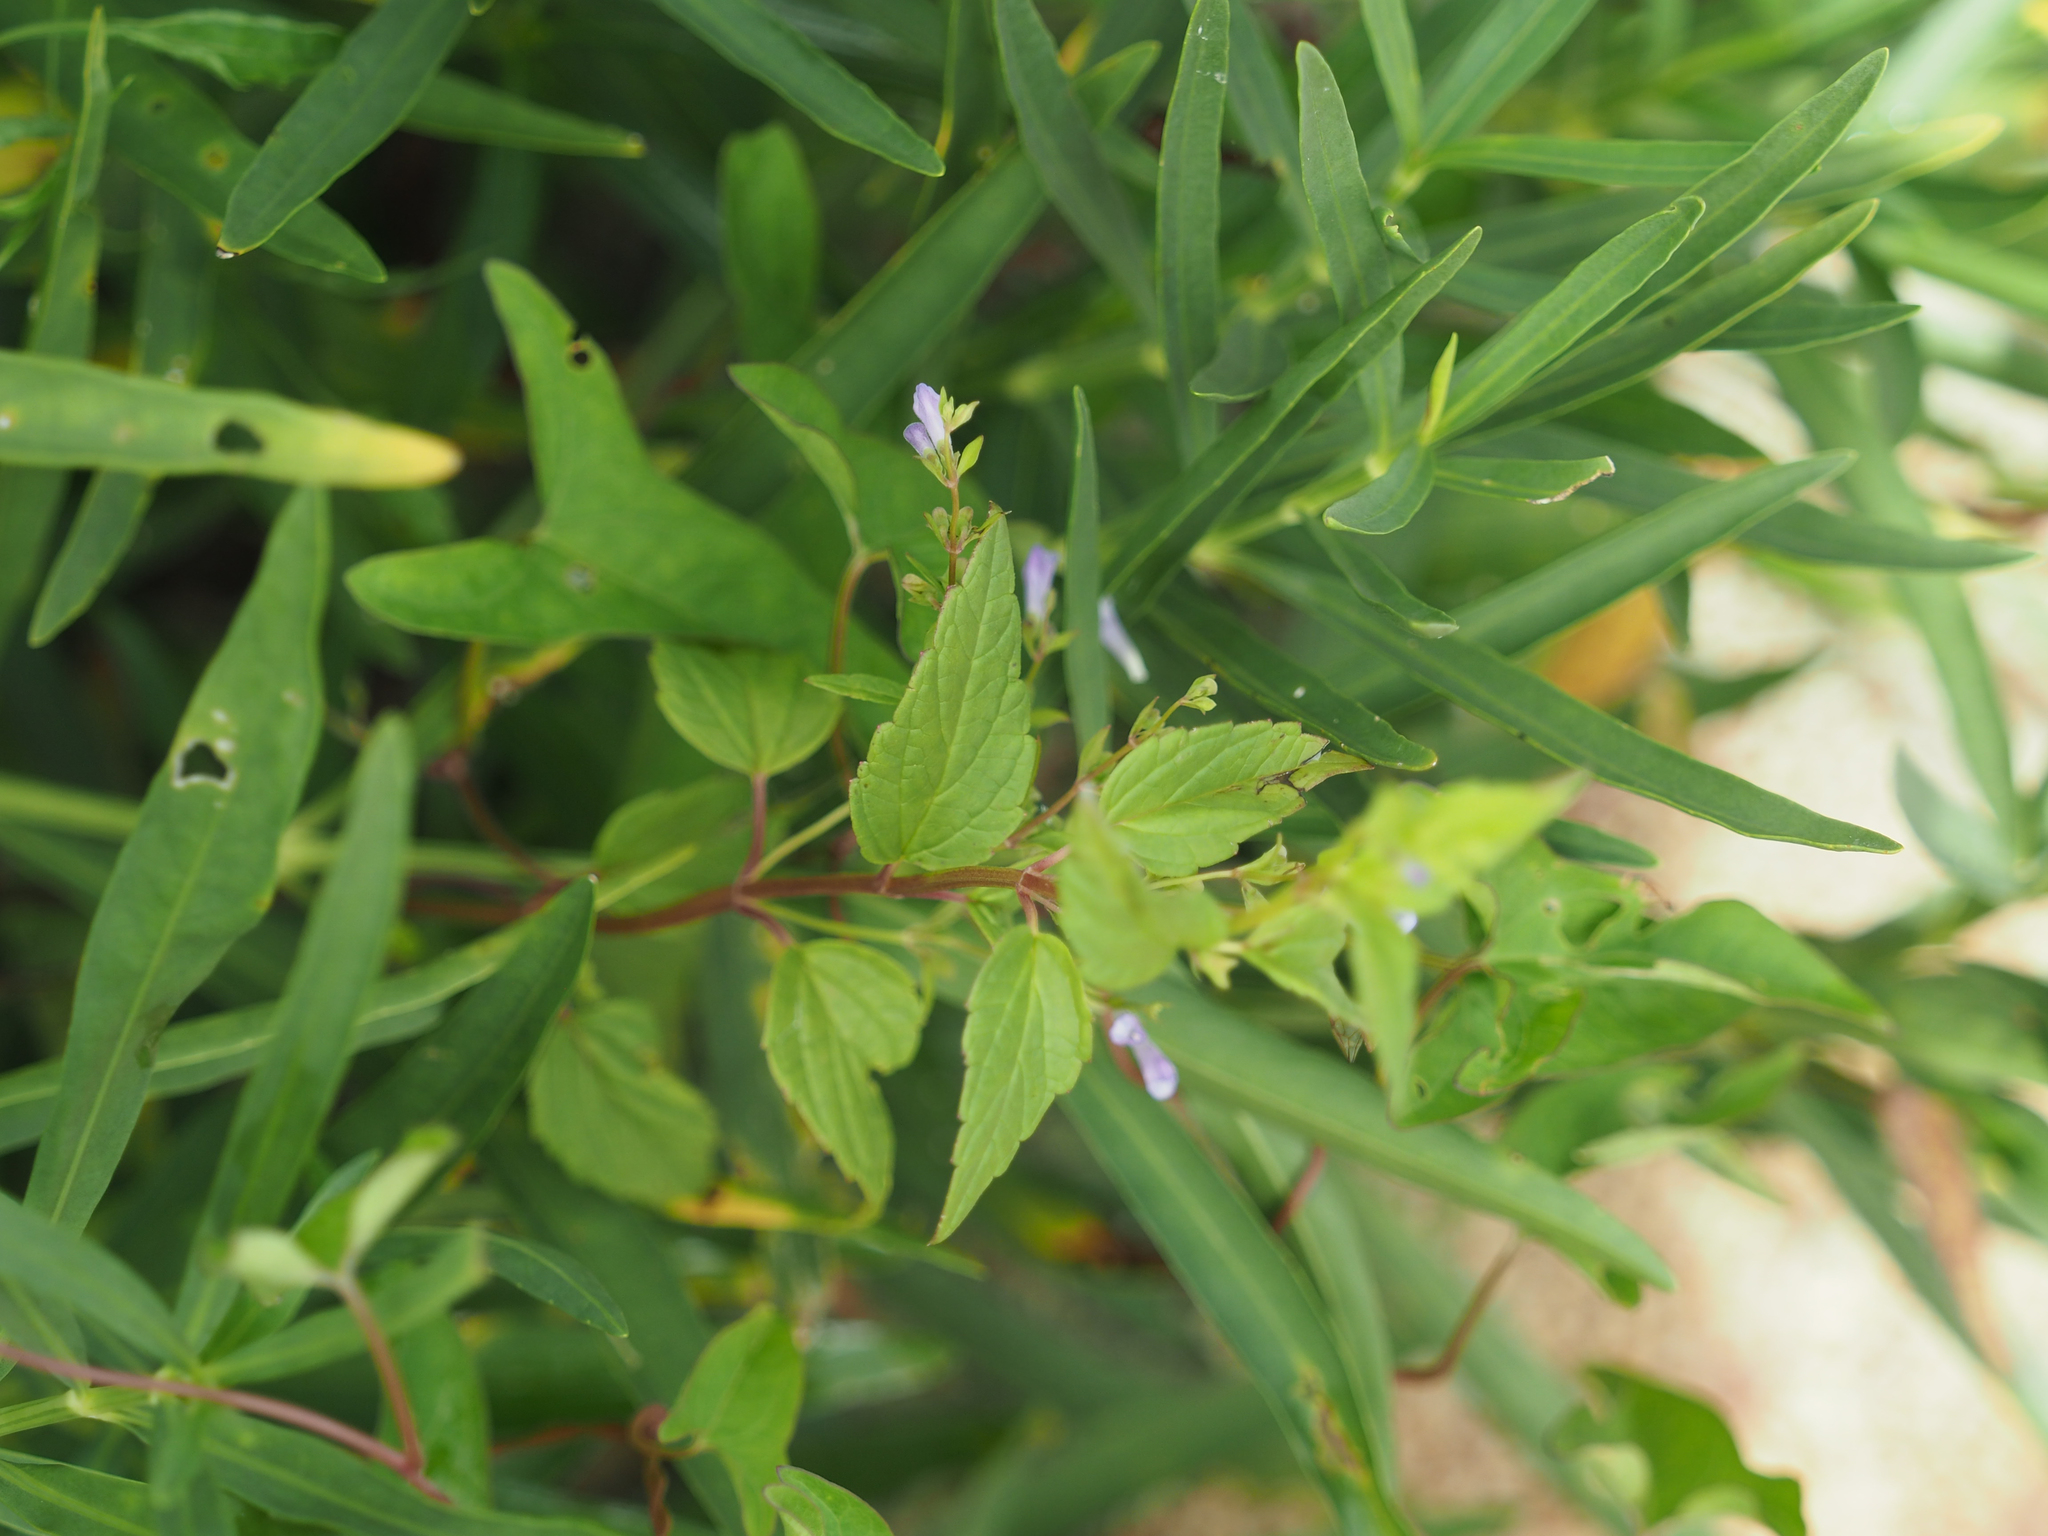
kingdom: Plantae
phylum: Tracheophyta
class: Magnoliopsida
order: Lamiales
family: Lamiaceae
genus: Scutellaria
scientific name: Scutellaria lateriflora
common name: Blue skullcap
